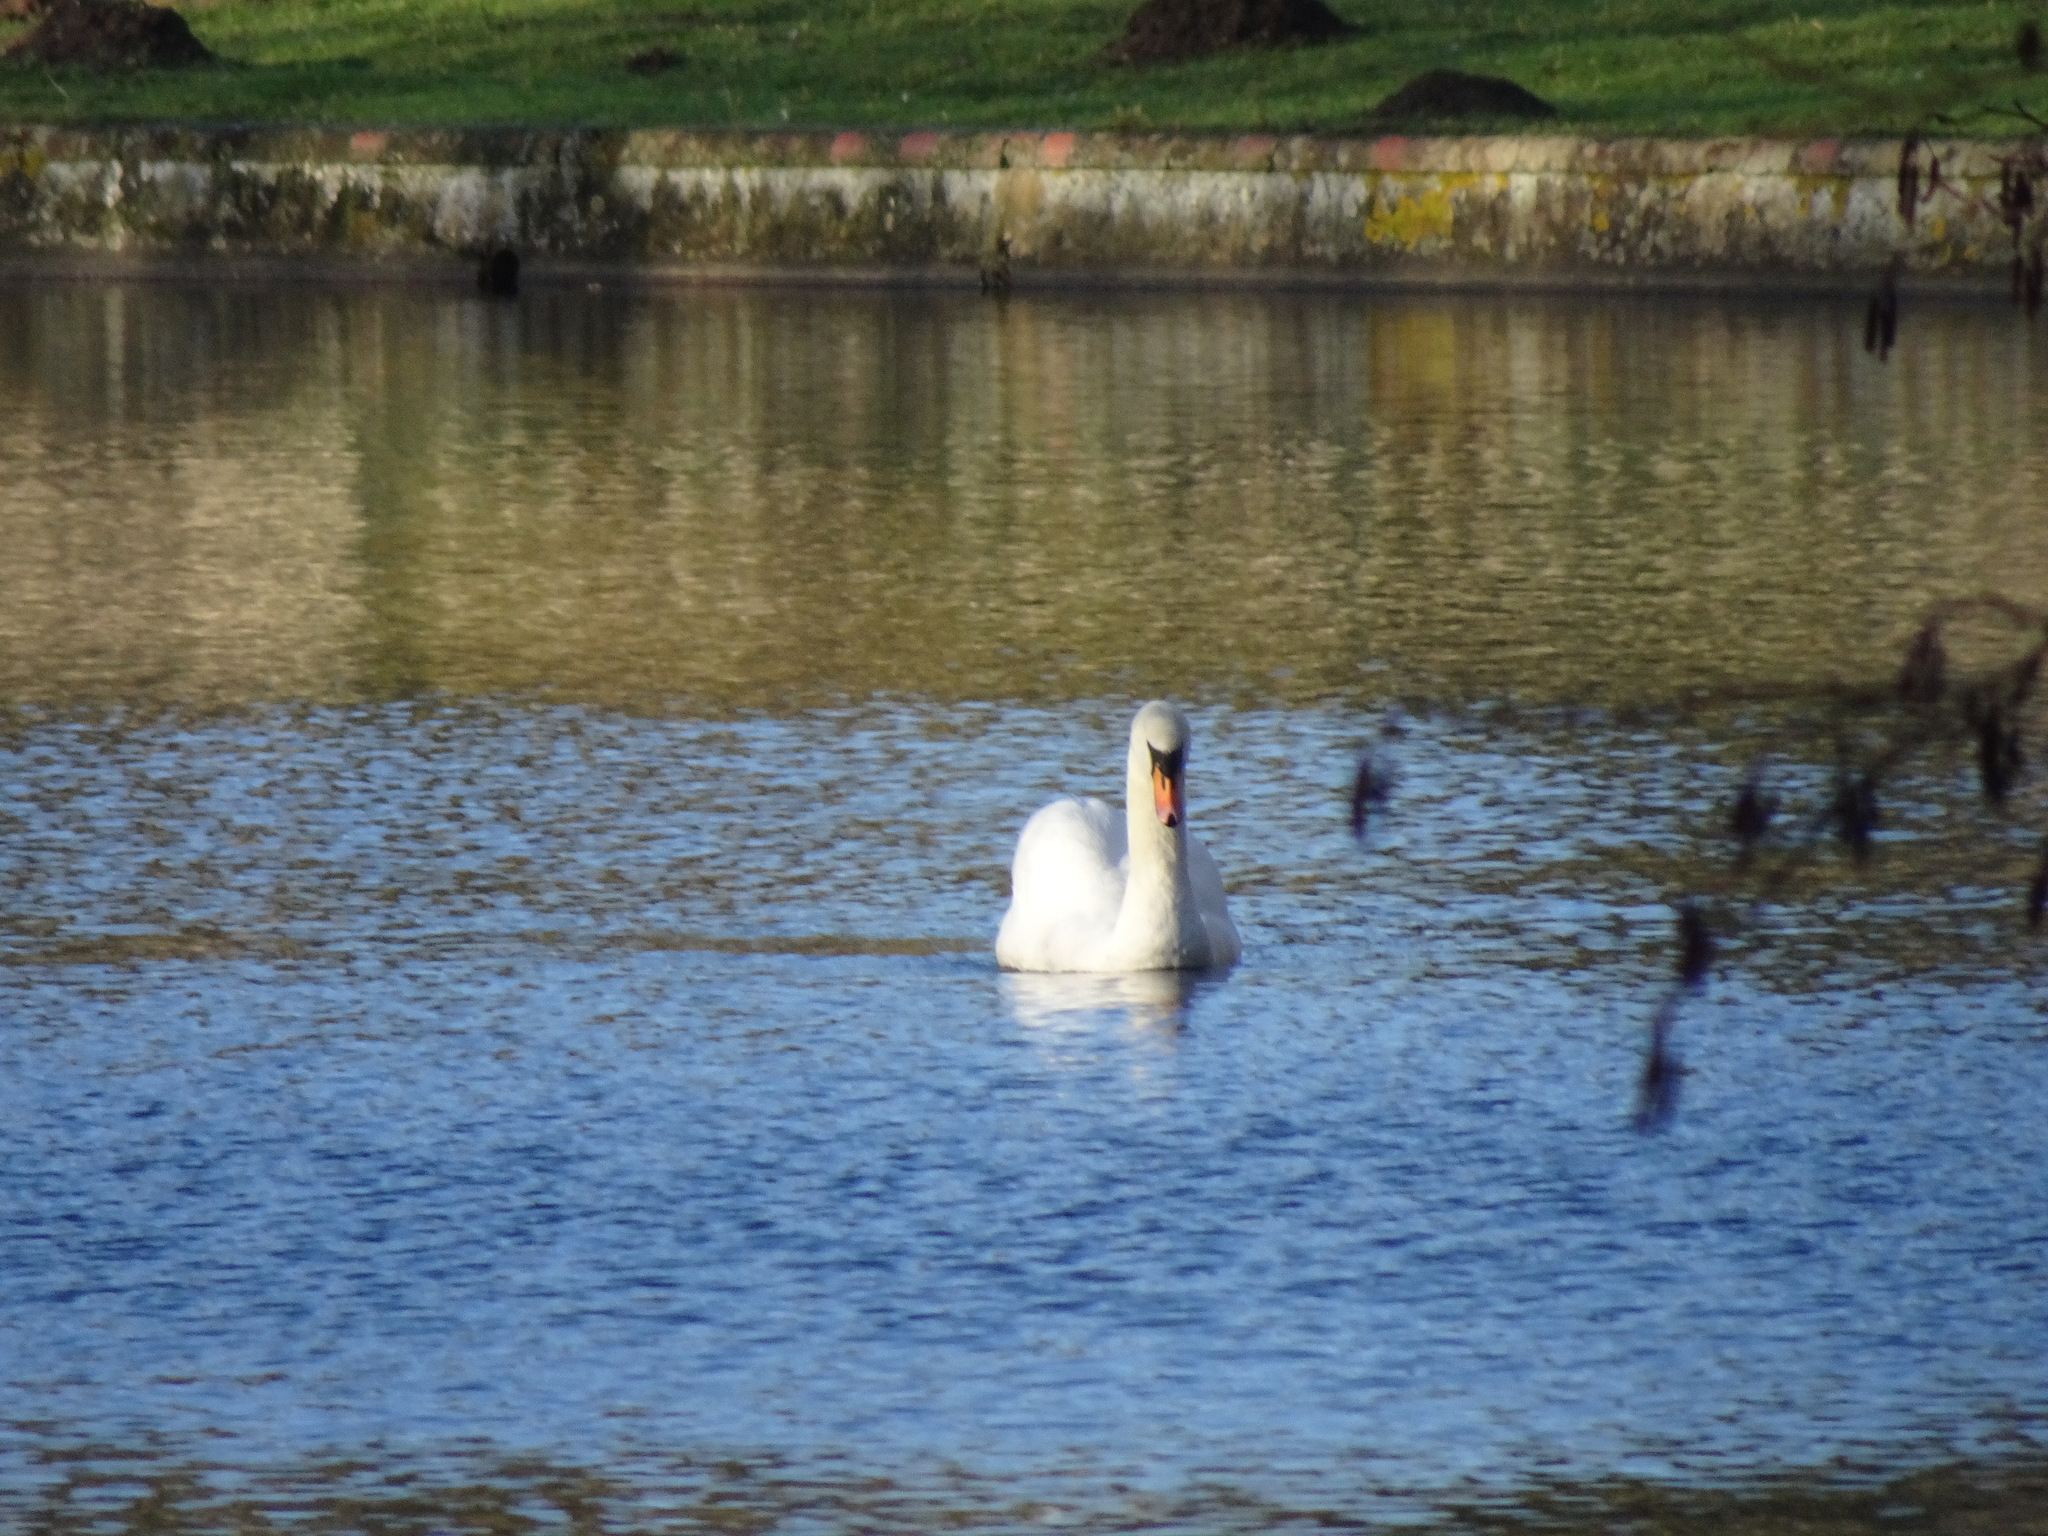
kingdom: Animalia
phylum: Chordata
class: Aves
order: Anseriformes
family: Anatidae
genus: Cygnus
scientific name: Cygnus olor
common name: Mute swan
